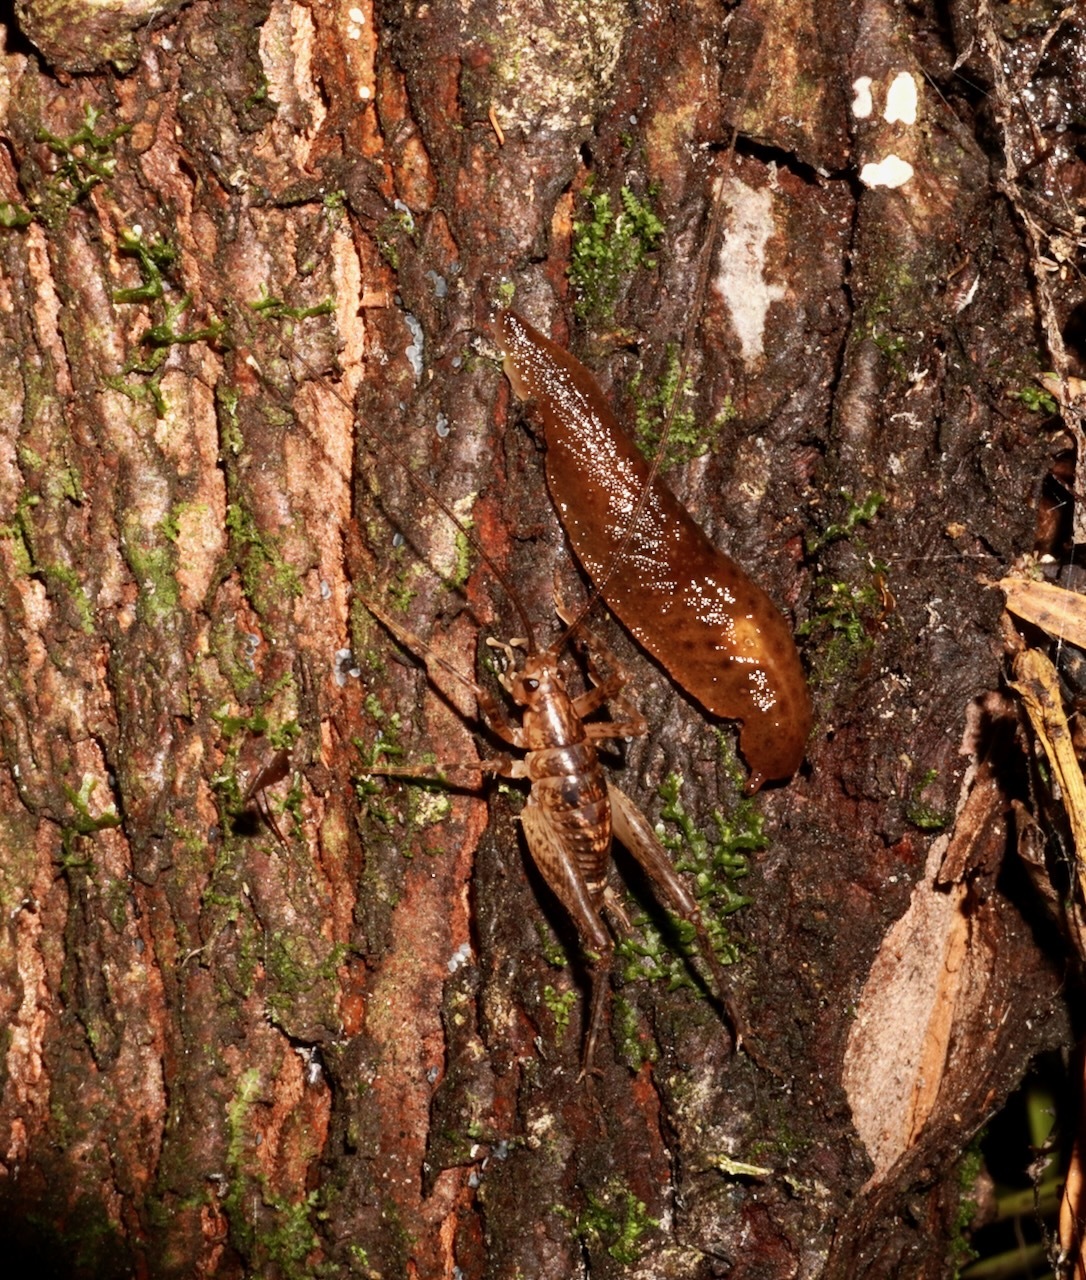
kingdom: Animalia
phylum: Arthropoda
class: Insecta
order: Orthoptera
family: Rhaphidophoridae
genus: Talitropsis
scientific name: Talitropsis sedilloti
